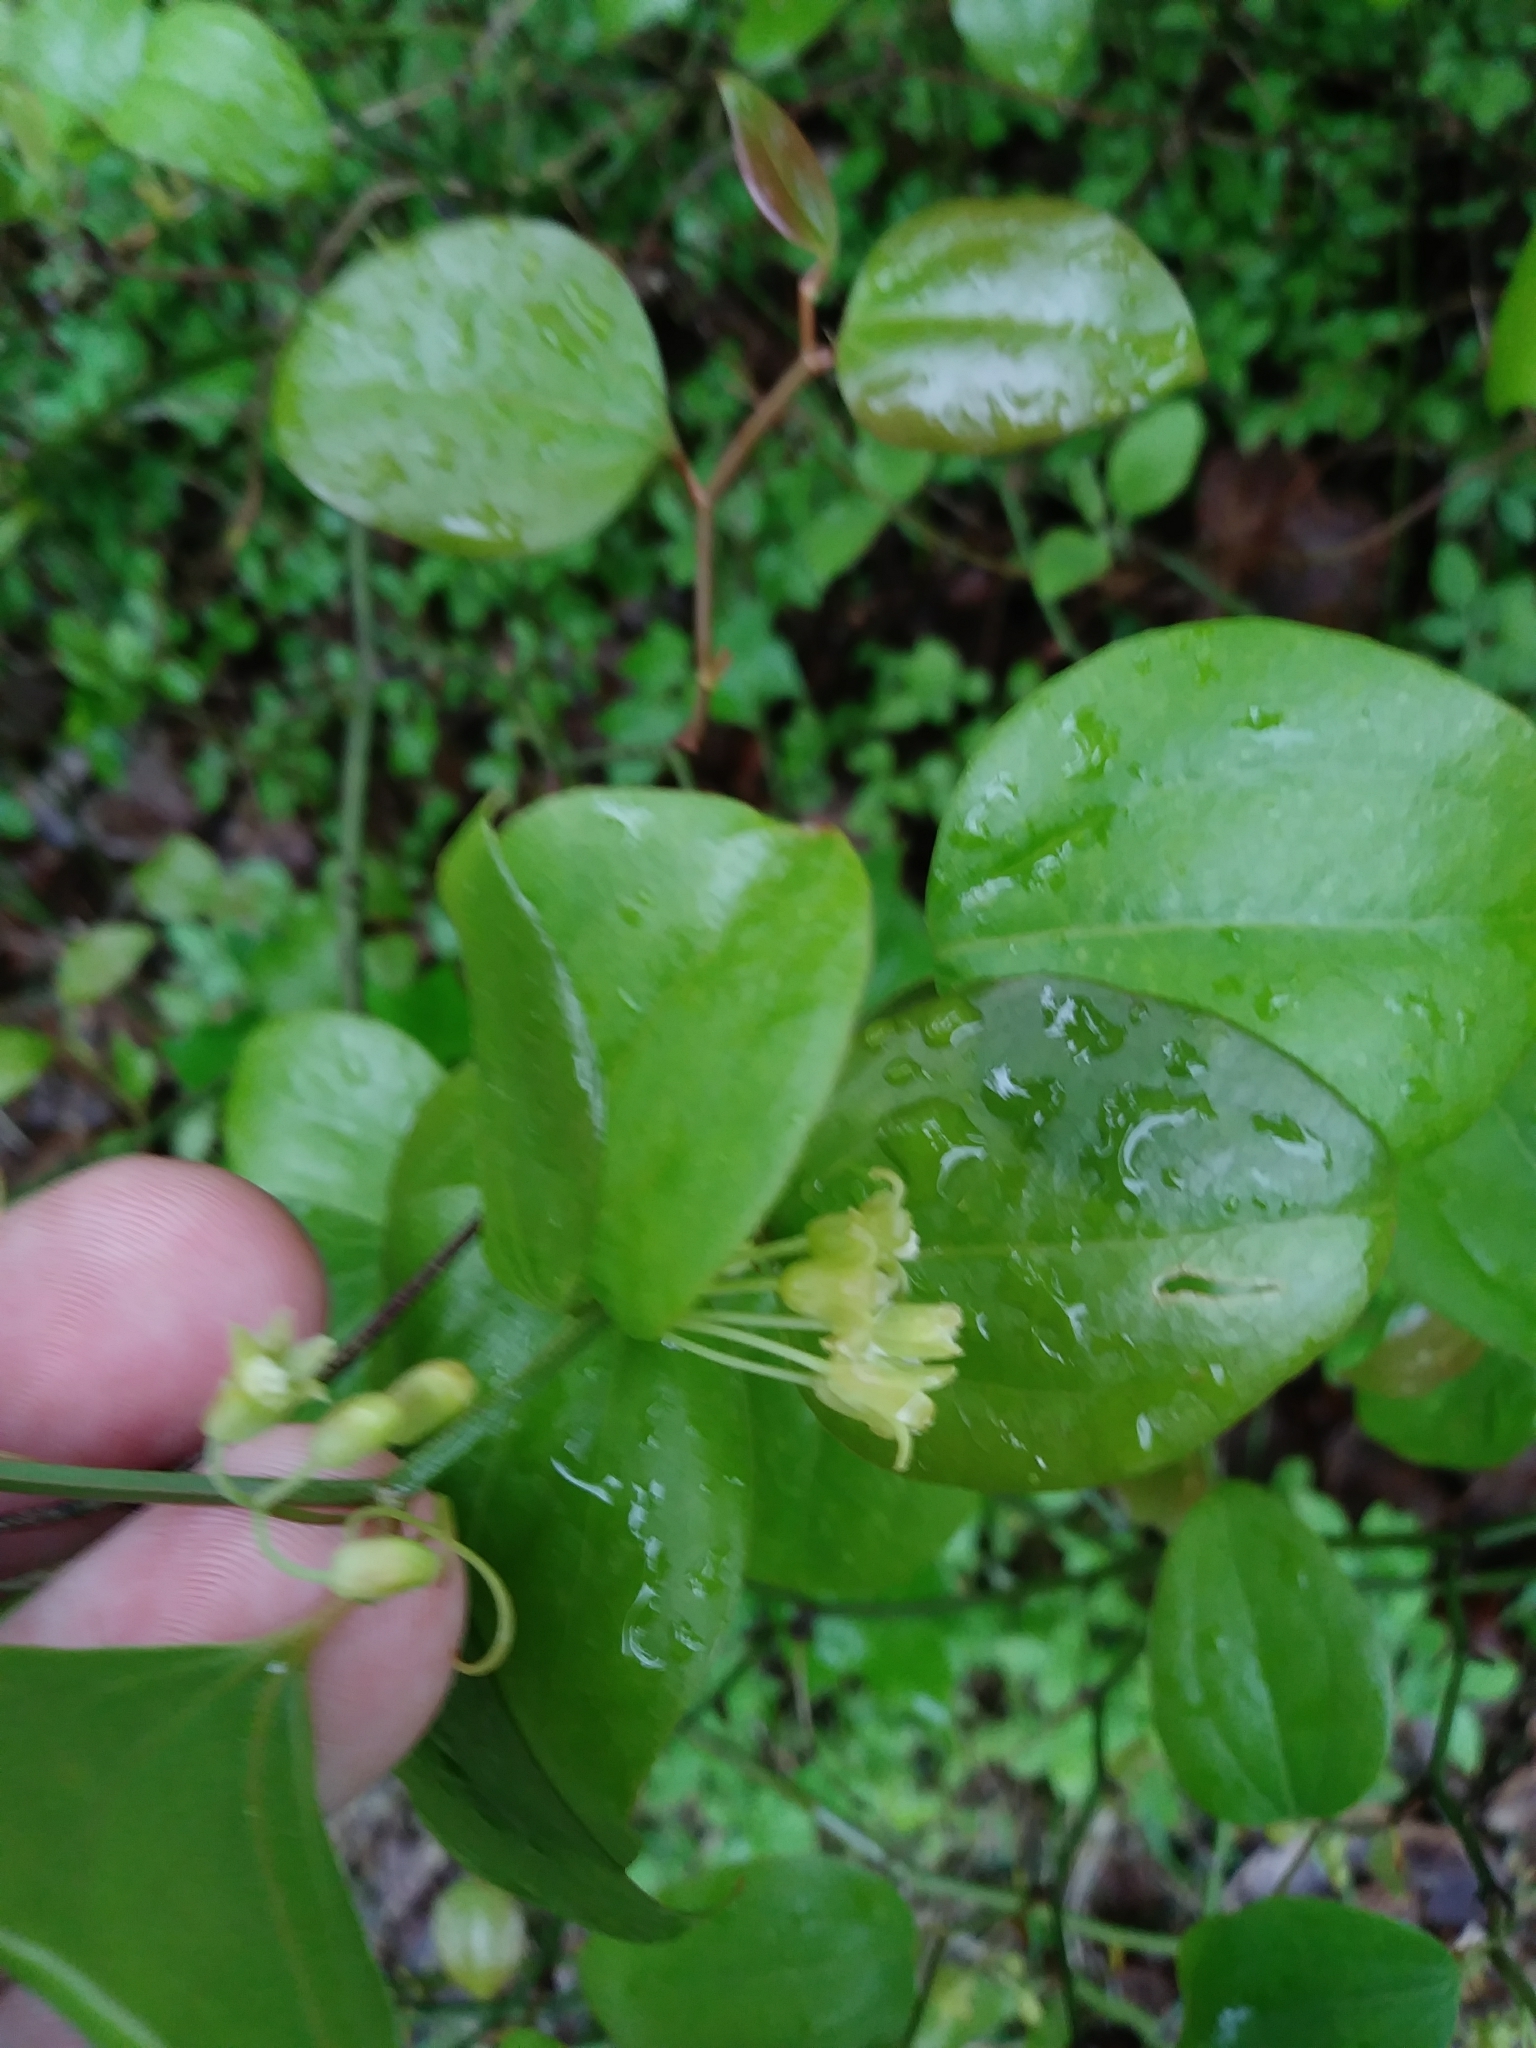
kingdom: Plantae
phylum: Tracheophyta
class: Liliopsida
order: Liliales
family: Smilacaceae
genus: Smilax
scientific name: Smilax rotundifolia
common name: Bullbriar
